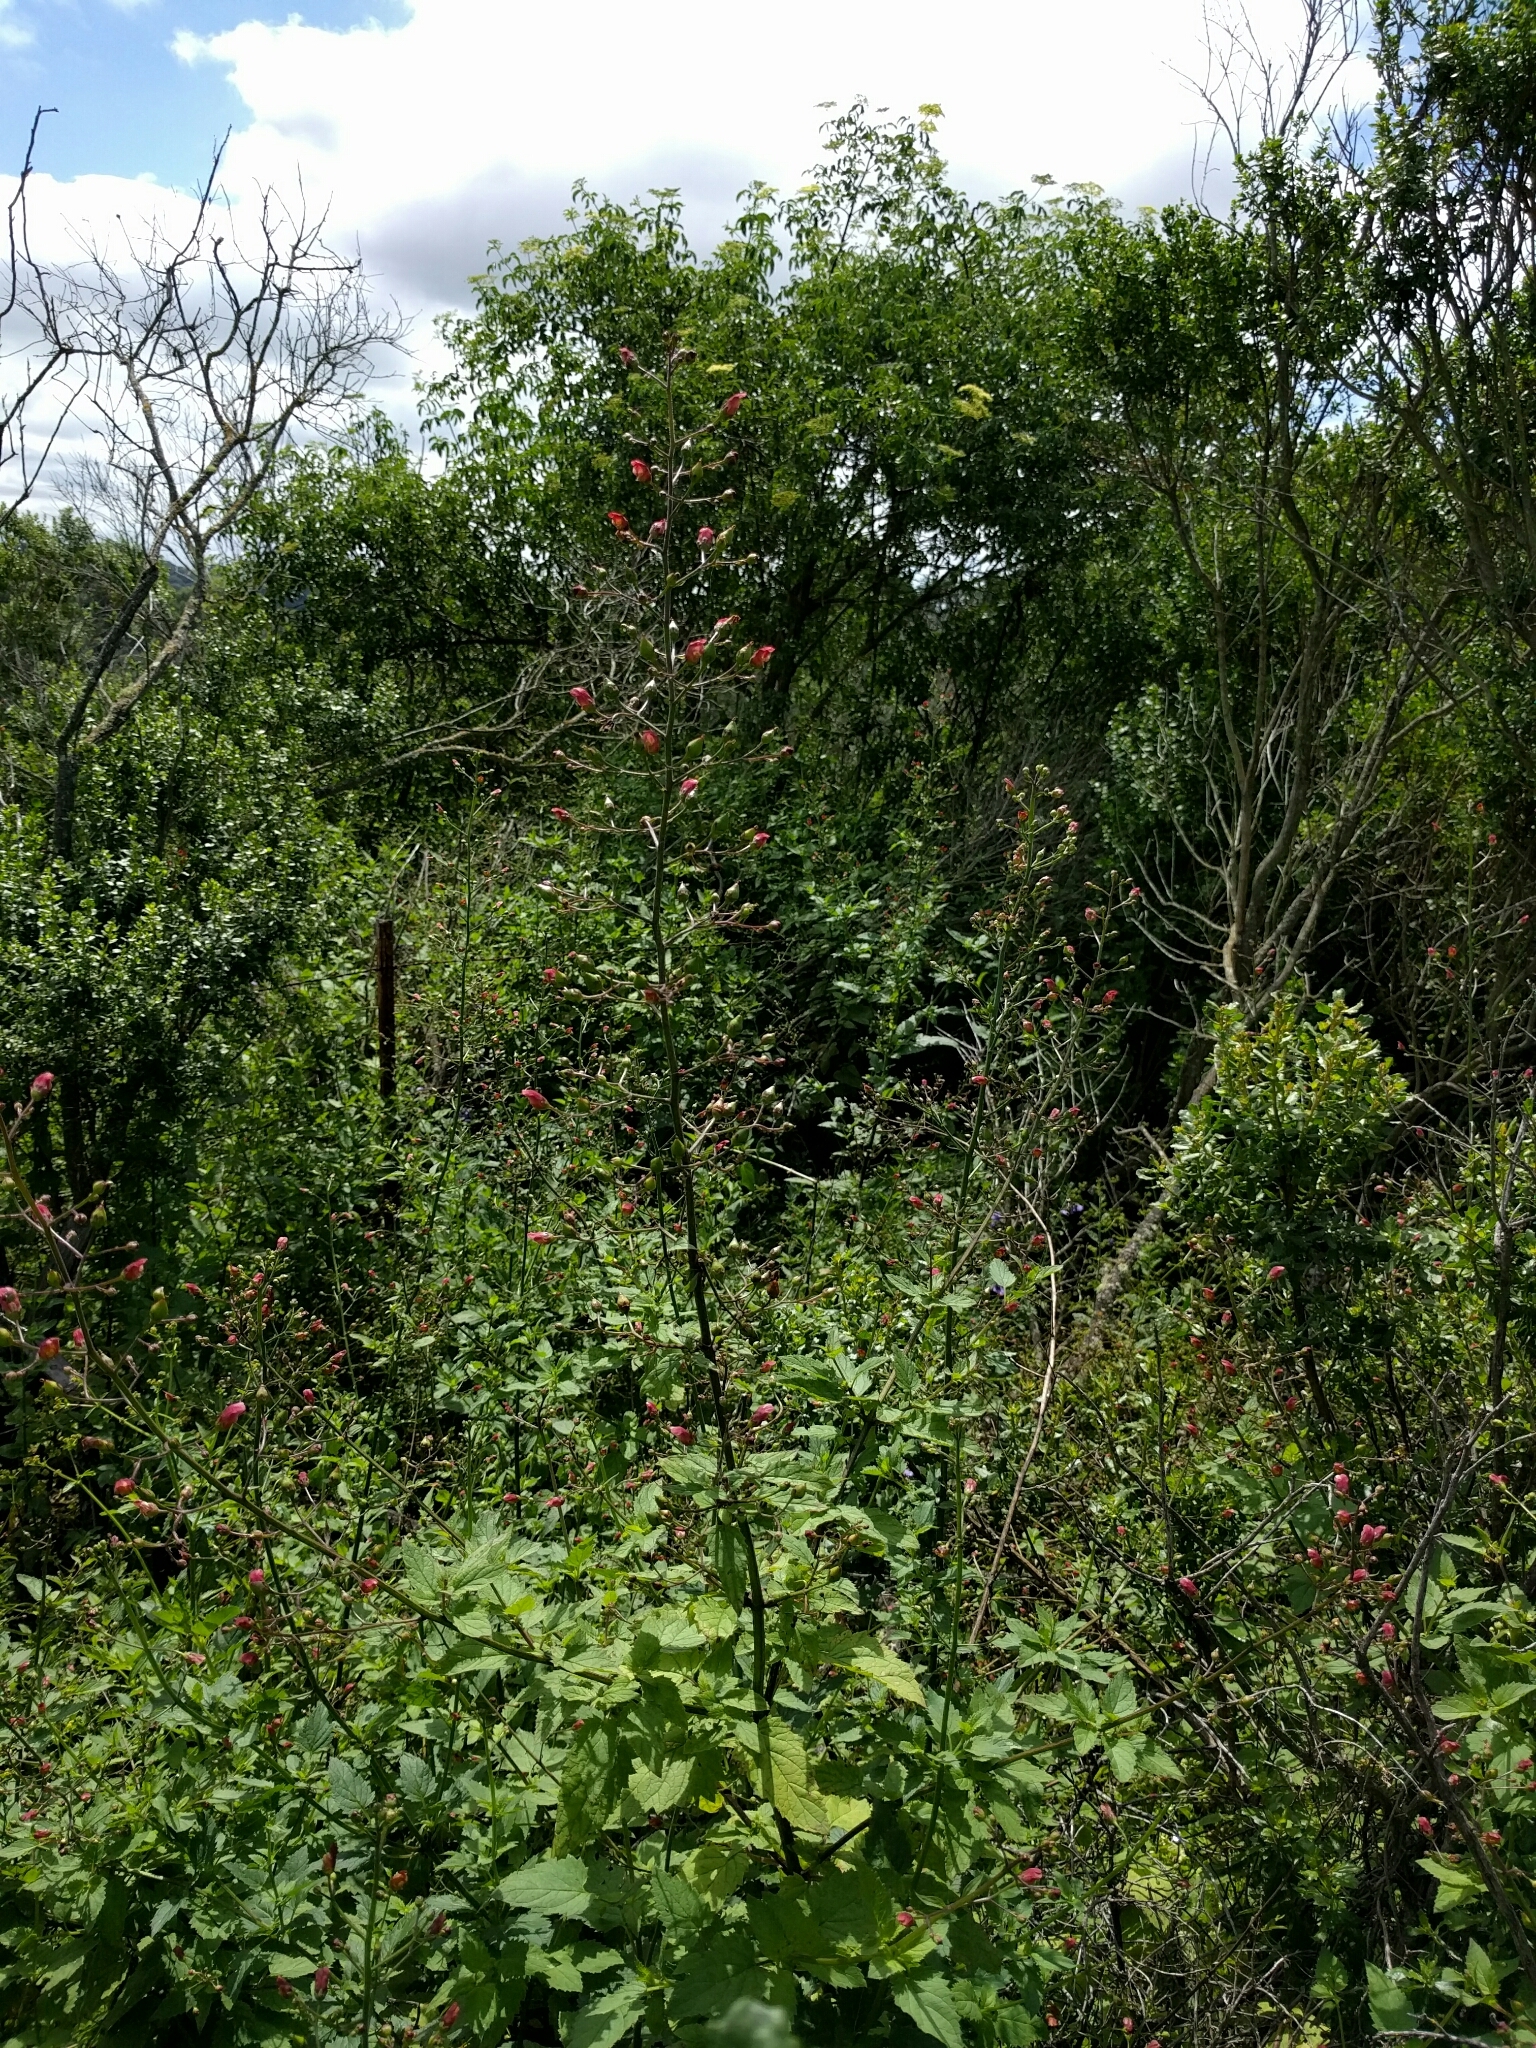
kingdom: Plantae
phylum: Tracheophyta
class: Magnoliopsida
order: Lamiales
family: Scrophulariaceae
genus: Scrophularia
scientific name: Scrophularia californica
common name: California figwort
